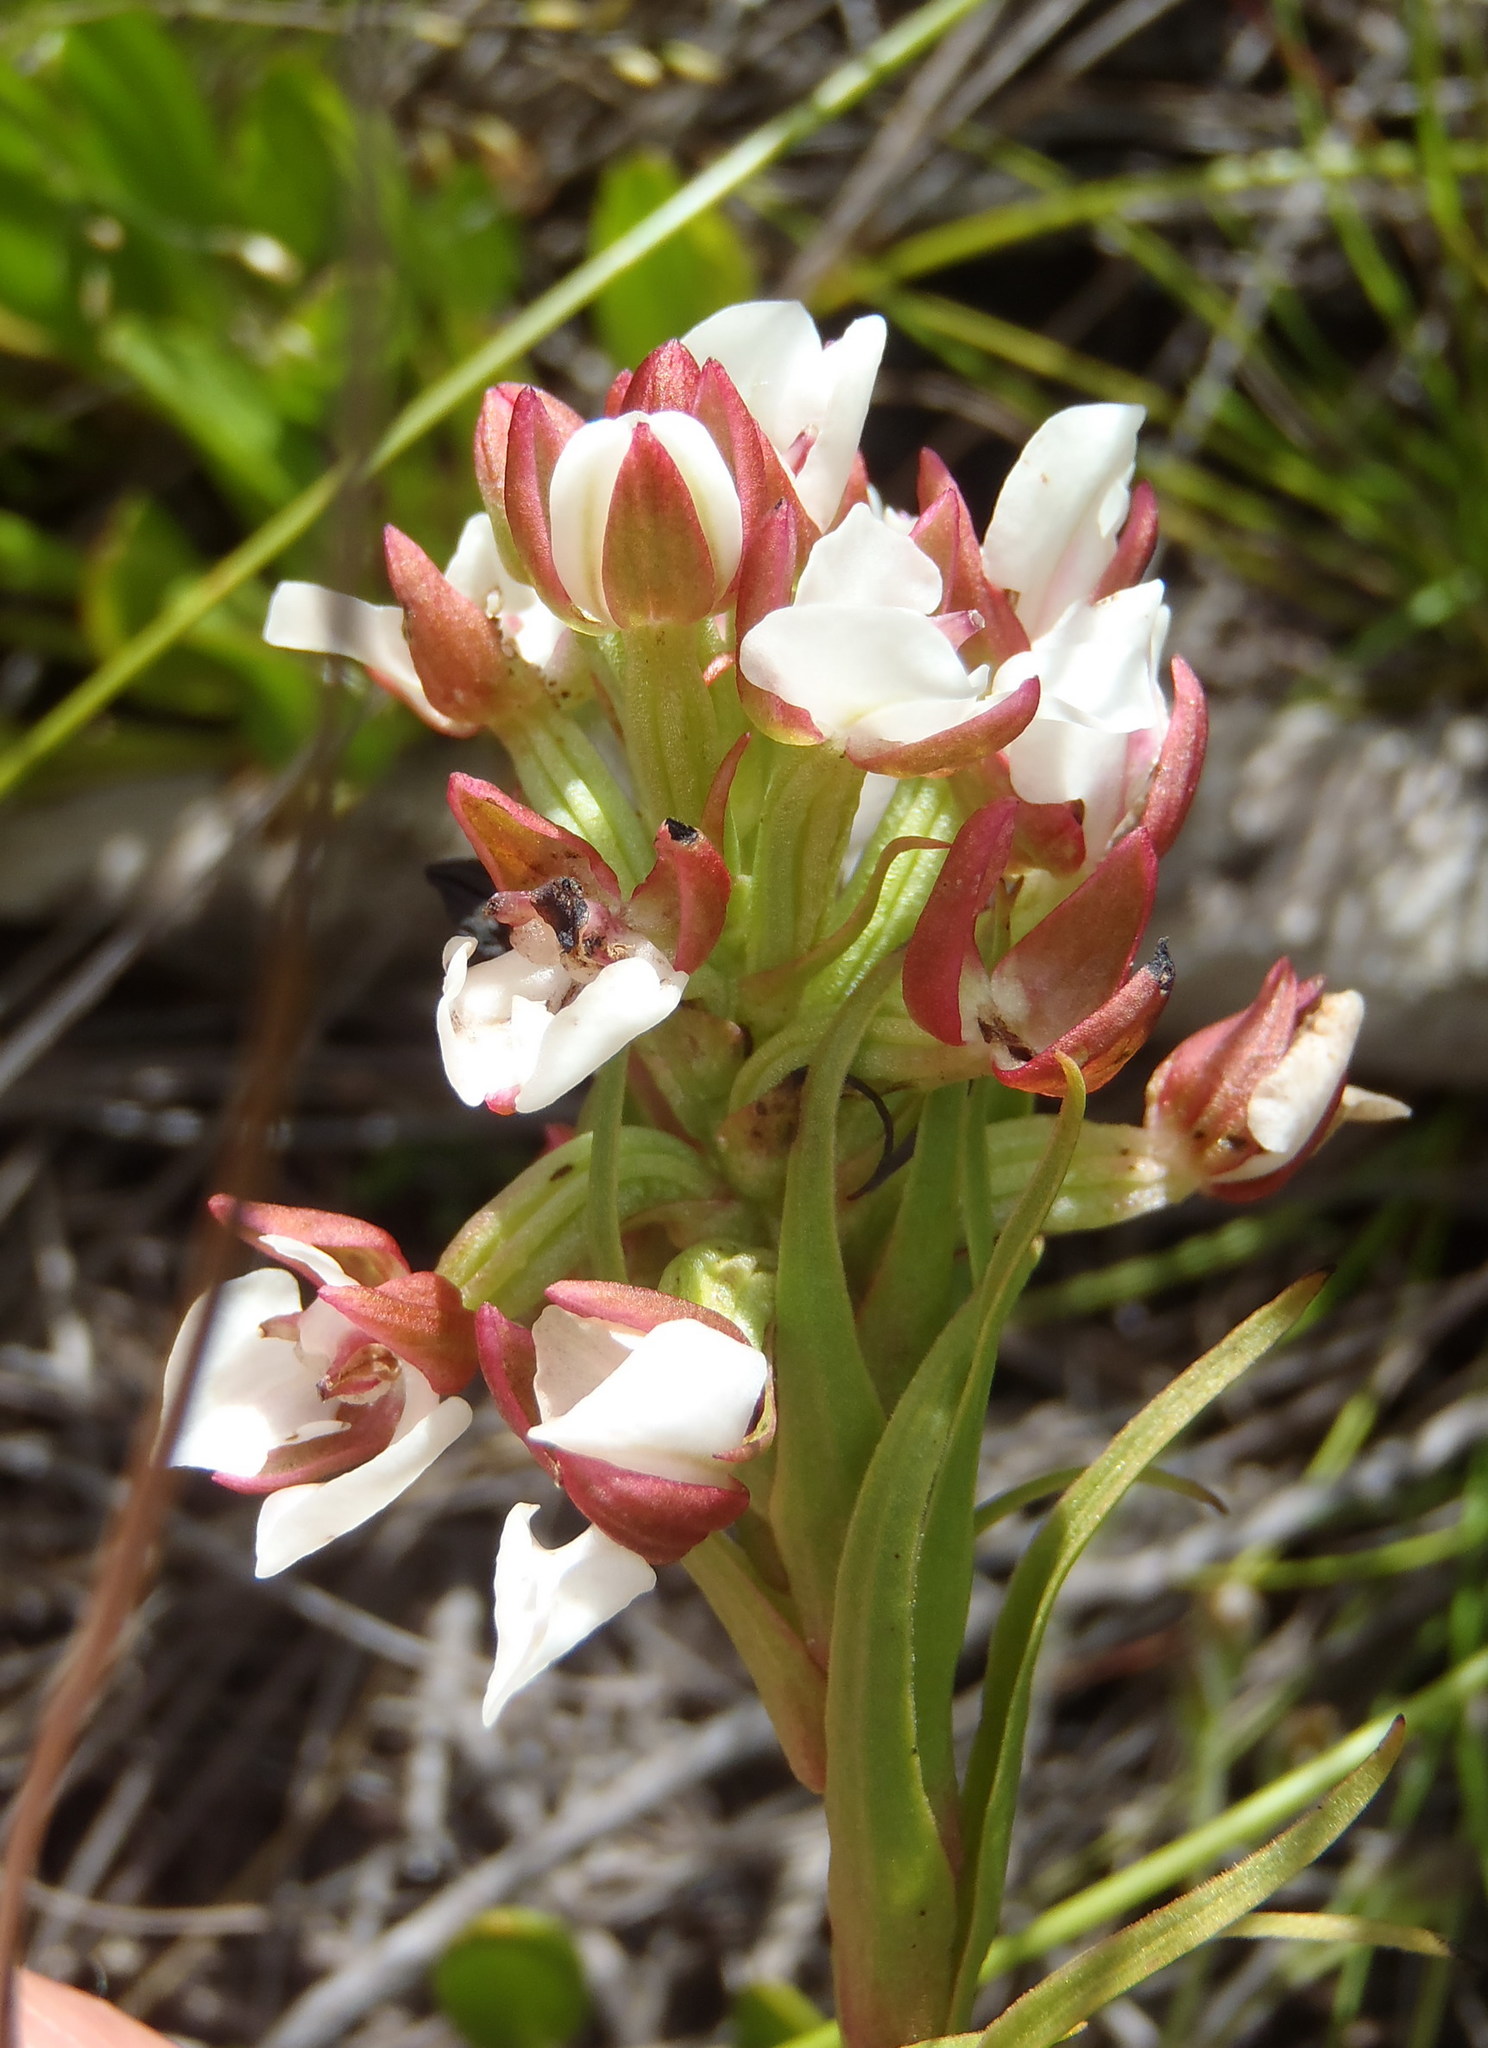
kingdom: Plantae
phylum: Tracheophyta
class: Liliopsida
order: Asparagales
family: Orchidaceae
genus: Ceratandra
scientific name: Ceratandra globosa
